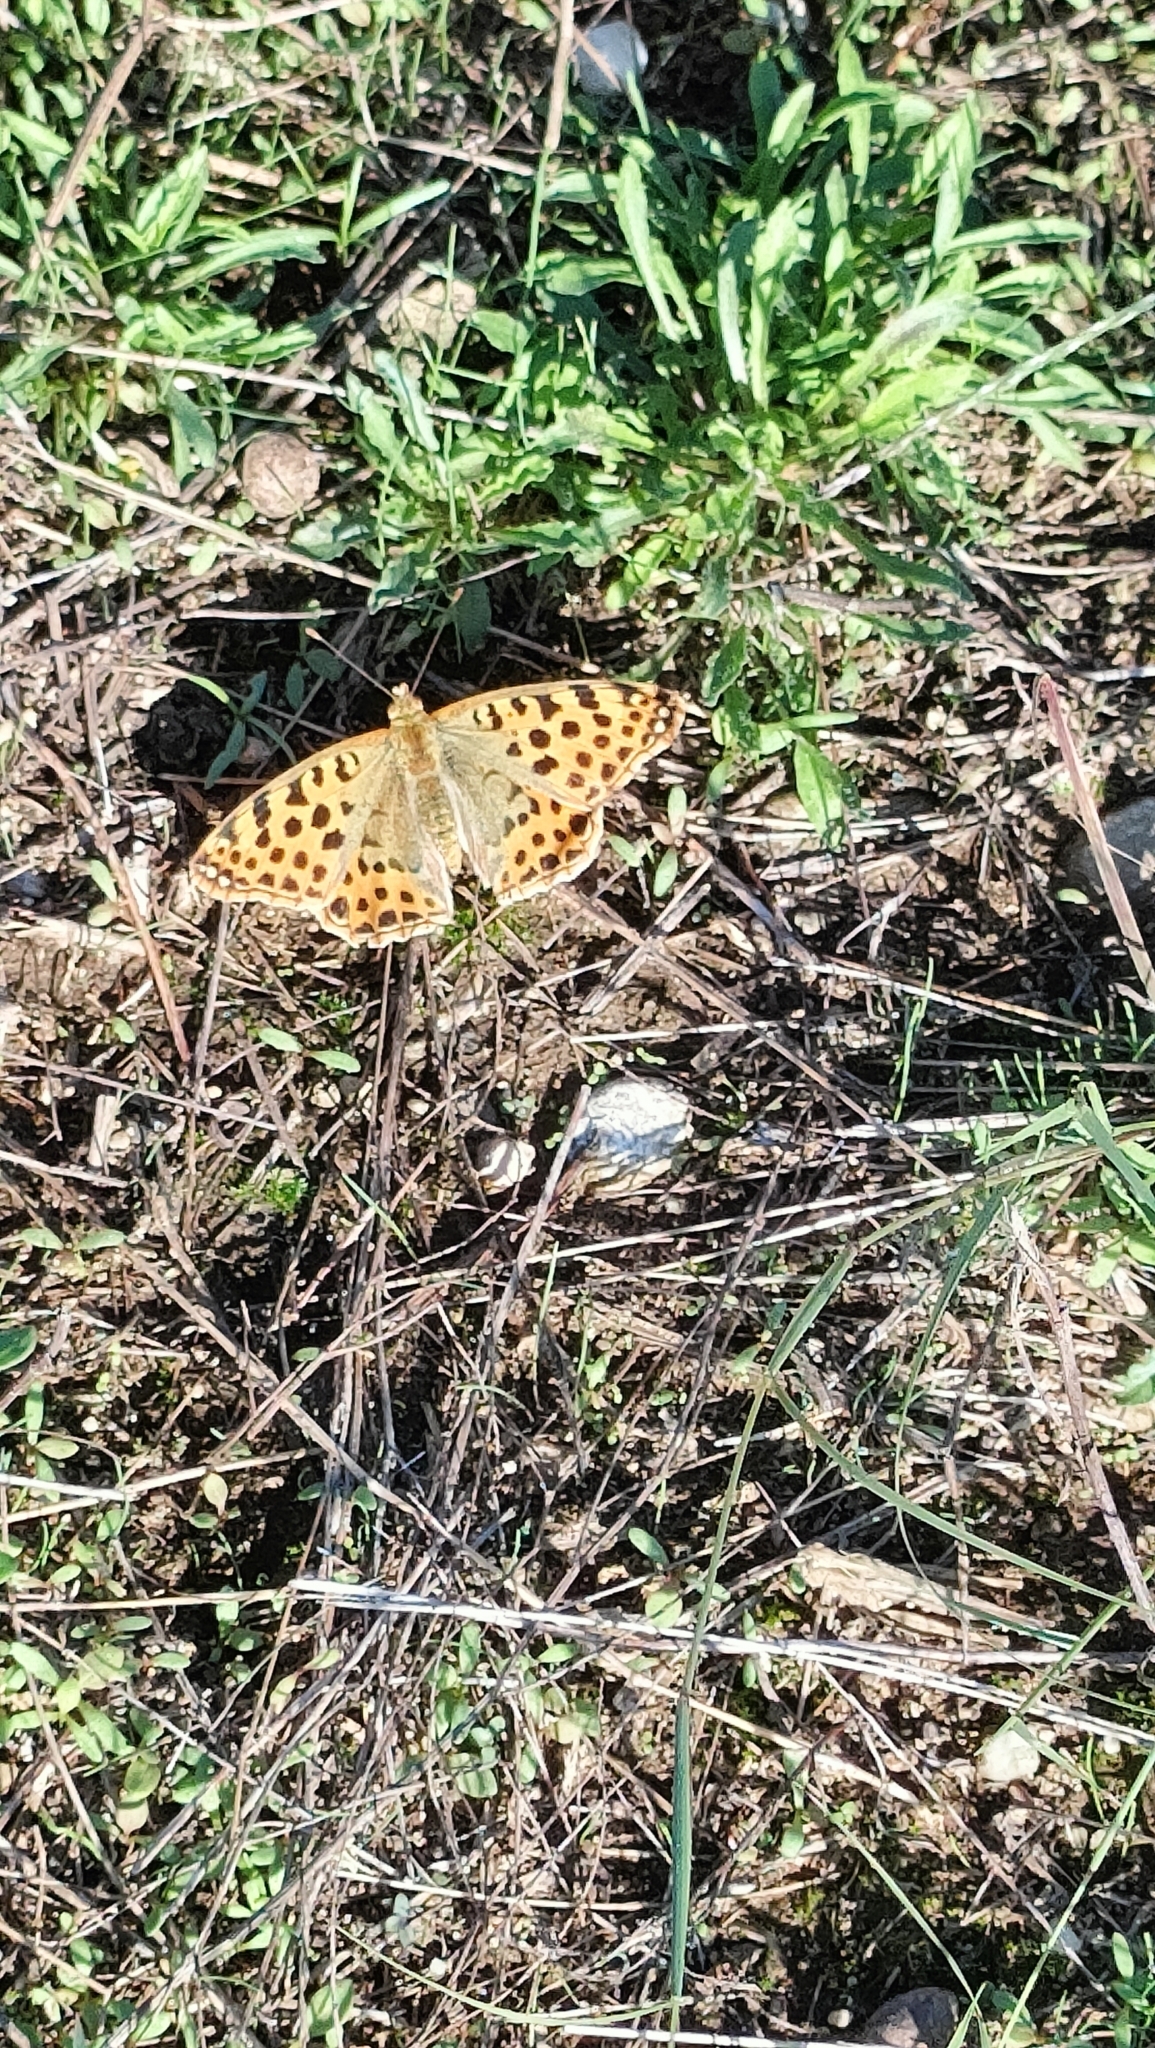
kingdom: Animalia
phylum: Arthropoda
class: Insecta
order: Lepidoptera
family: Nymphalidae
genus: Issoria
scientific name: Issoria lathonia
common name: Queen of spain fritillary
